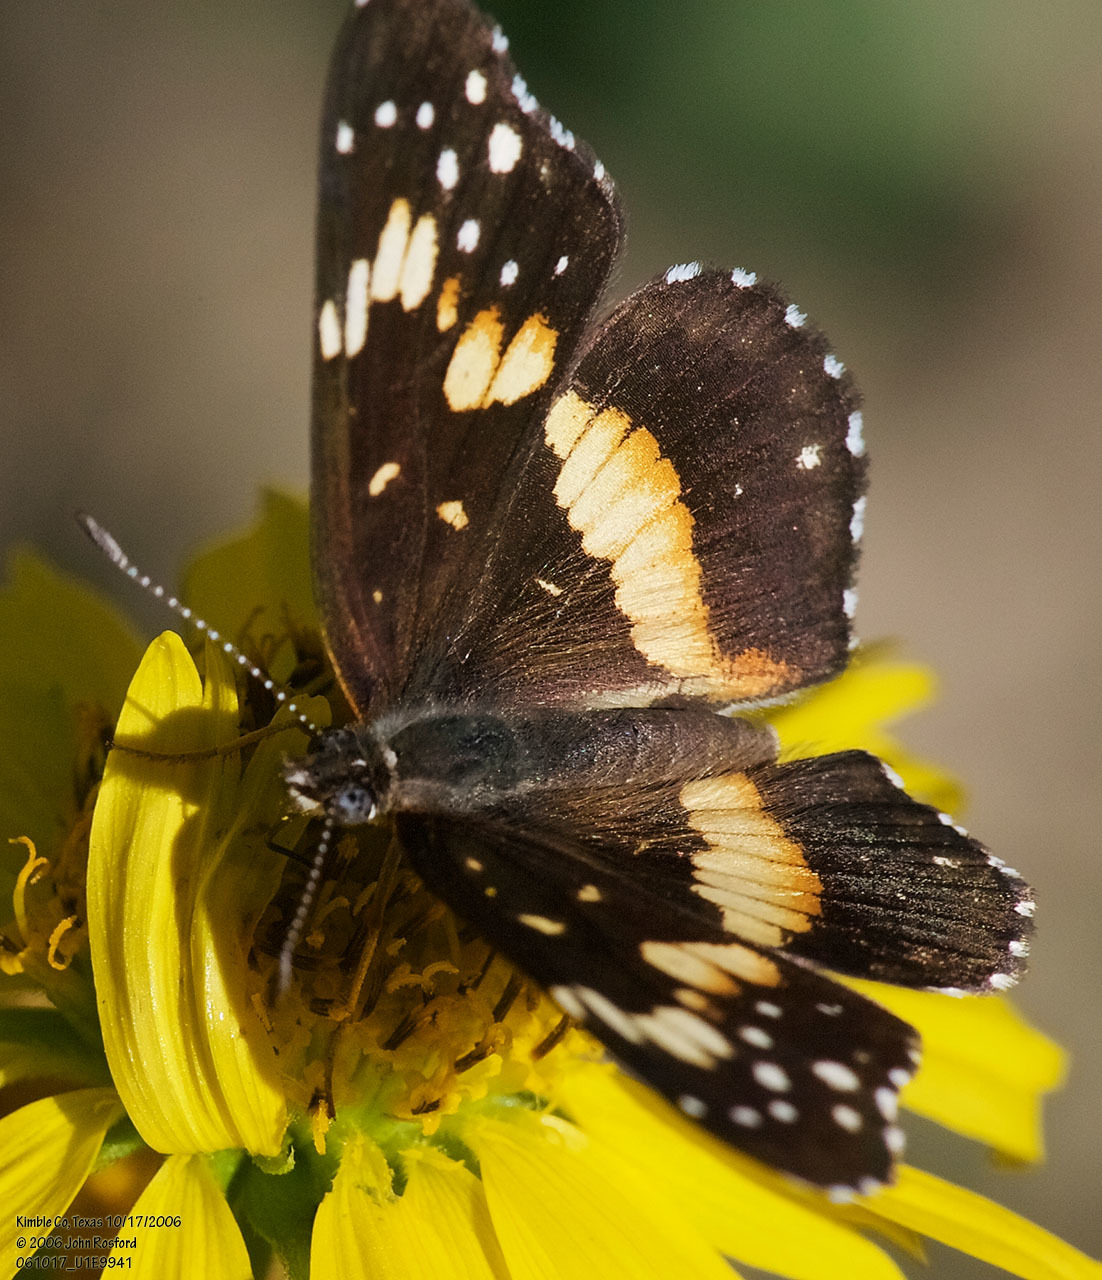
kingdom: Animalia
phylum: Arthropoda
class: Insecta
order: Lepidoptera
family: Nymphalidae
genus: Chlosyne
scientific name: Chlosyne lacinia
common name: Bordered patch
